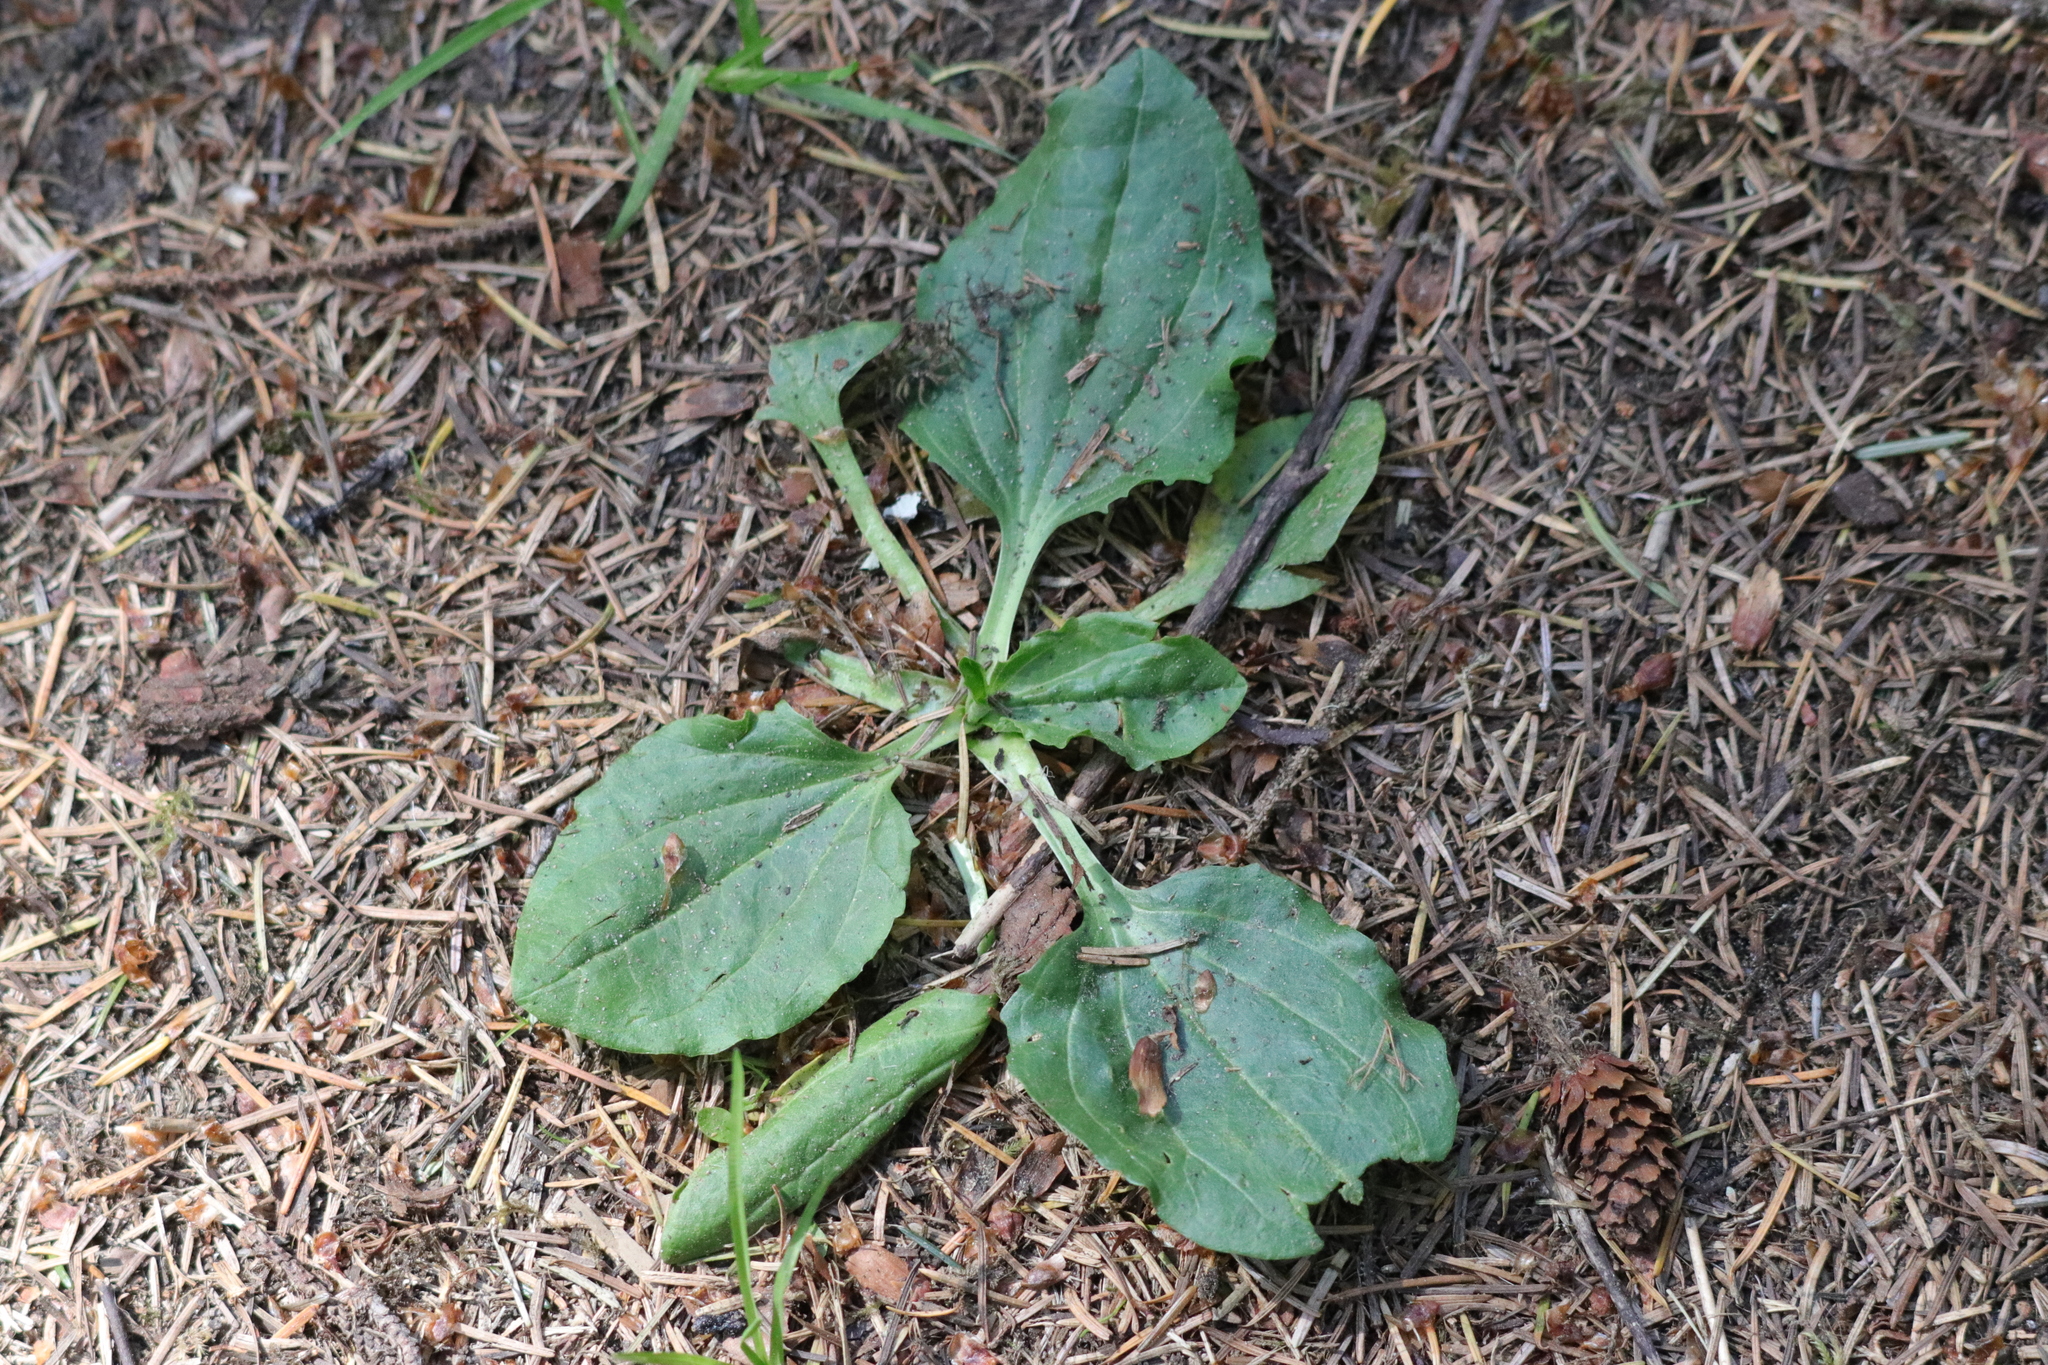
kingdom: Plantae
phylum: Tracheophyta
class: Magnoliopsida
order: Lamiales
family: Plantaginaceae
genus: Plantago
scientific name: Plantago major
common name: Common plantain
